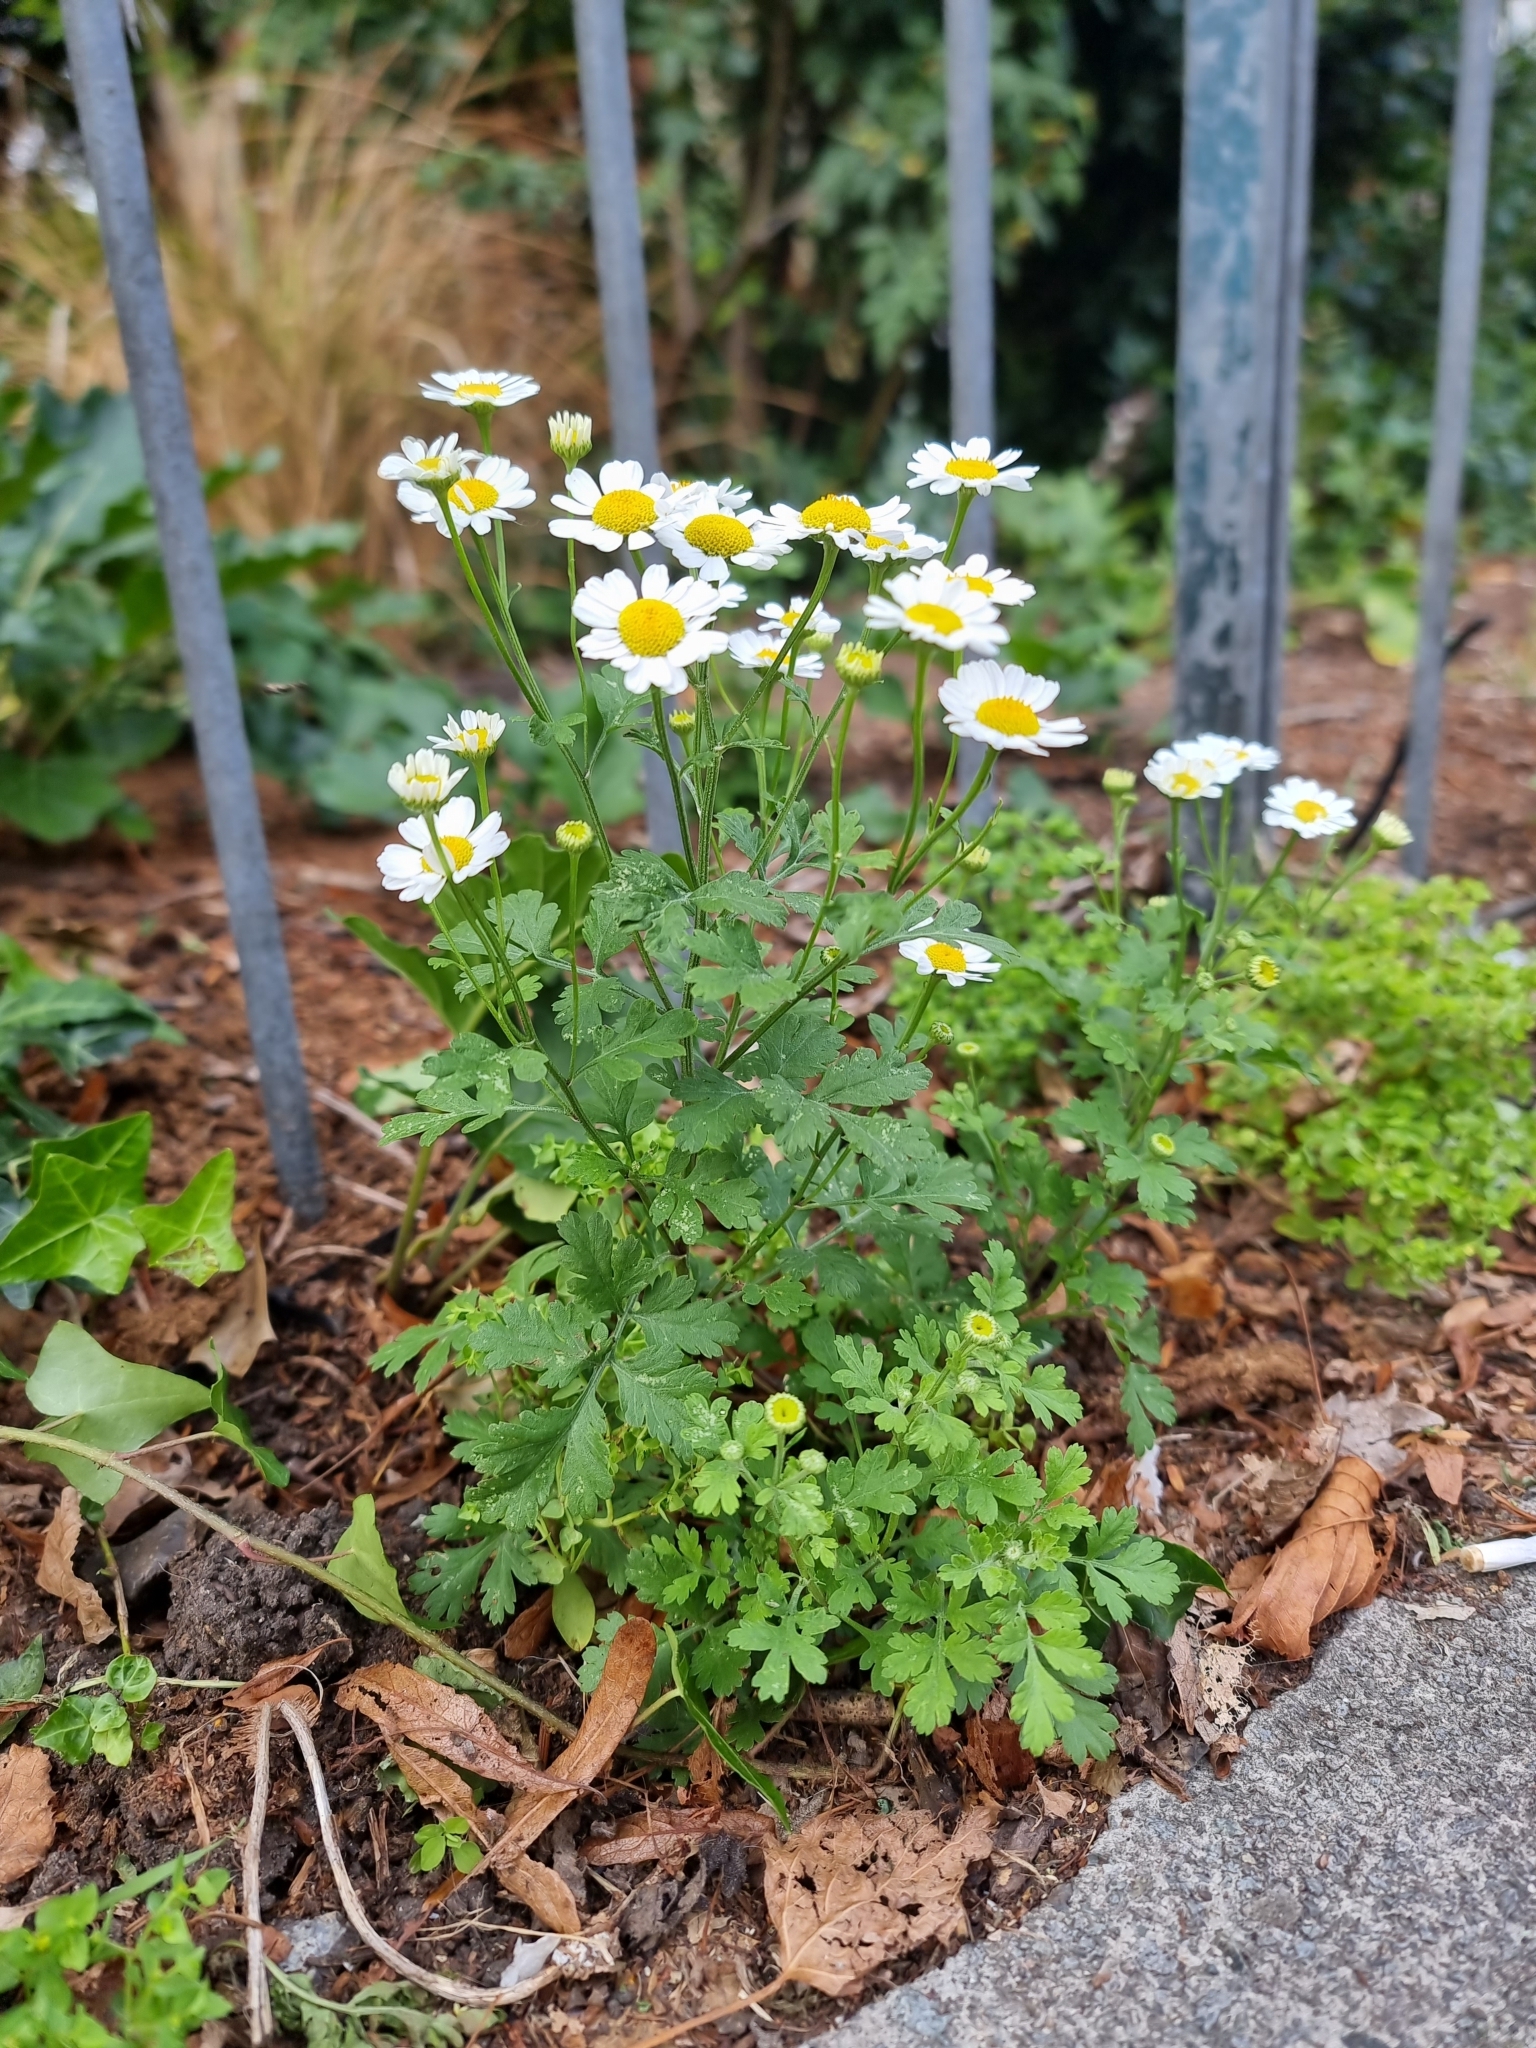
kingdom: Plantae
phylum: Tracheophyta
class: Magnoliopsida
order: Asterales
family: Asteraceae
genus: Tanacetum
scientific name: Tanacetum parthenium
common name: Feverfew
